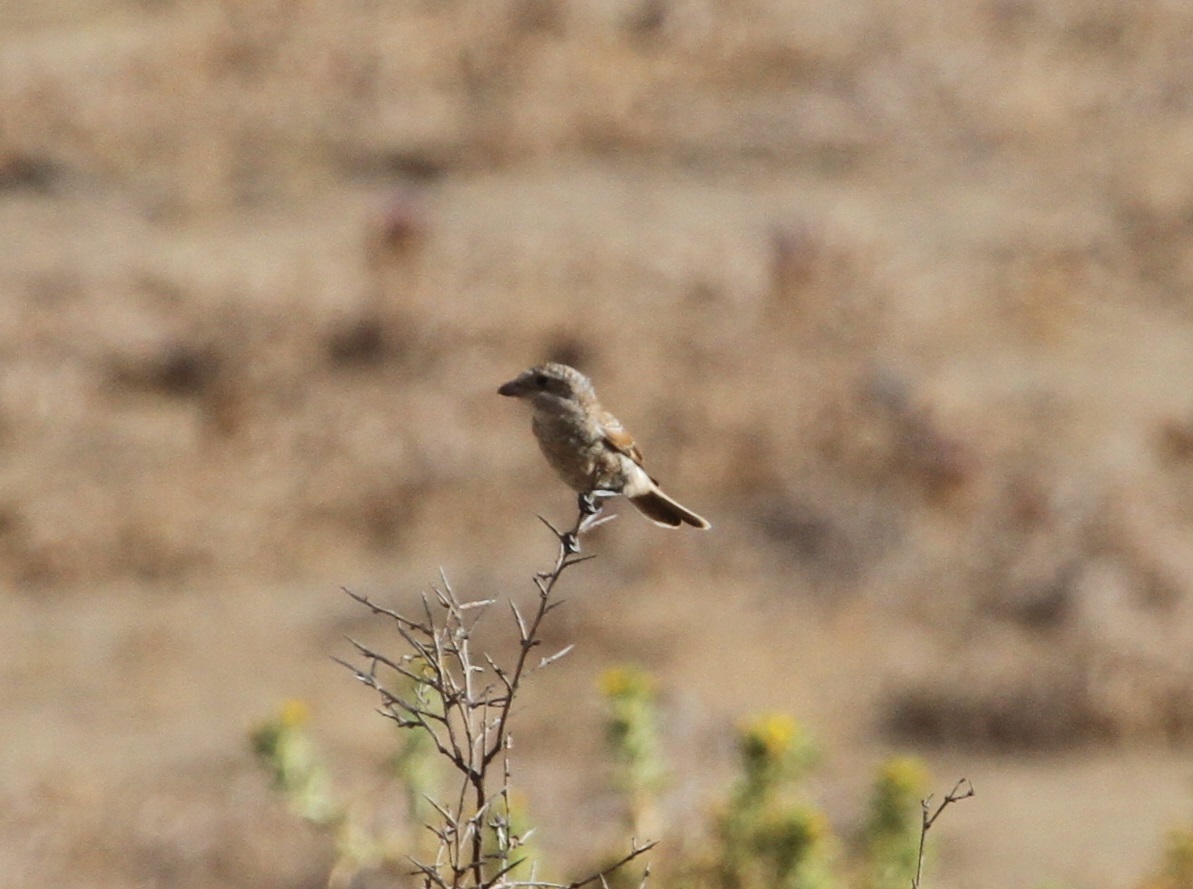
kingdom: Animalia
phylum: Chordata
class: Aves
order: Passeriformes
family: Laniidae
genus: Lanius
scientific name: Lanius senator
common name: Woodchat shrike
